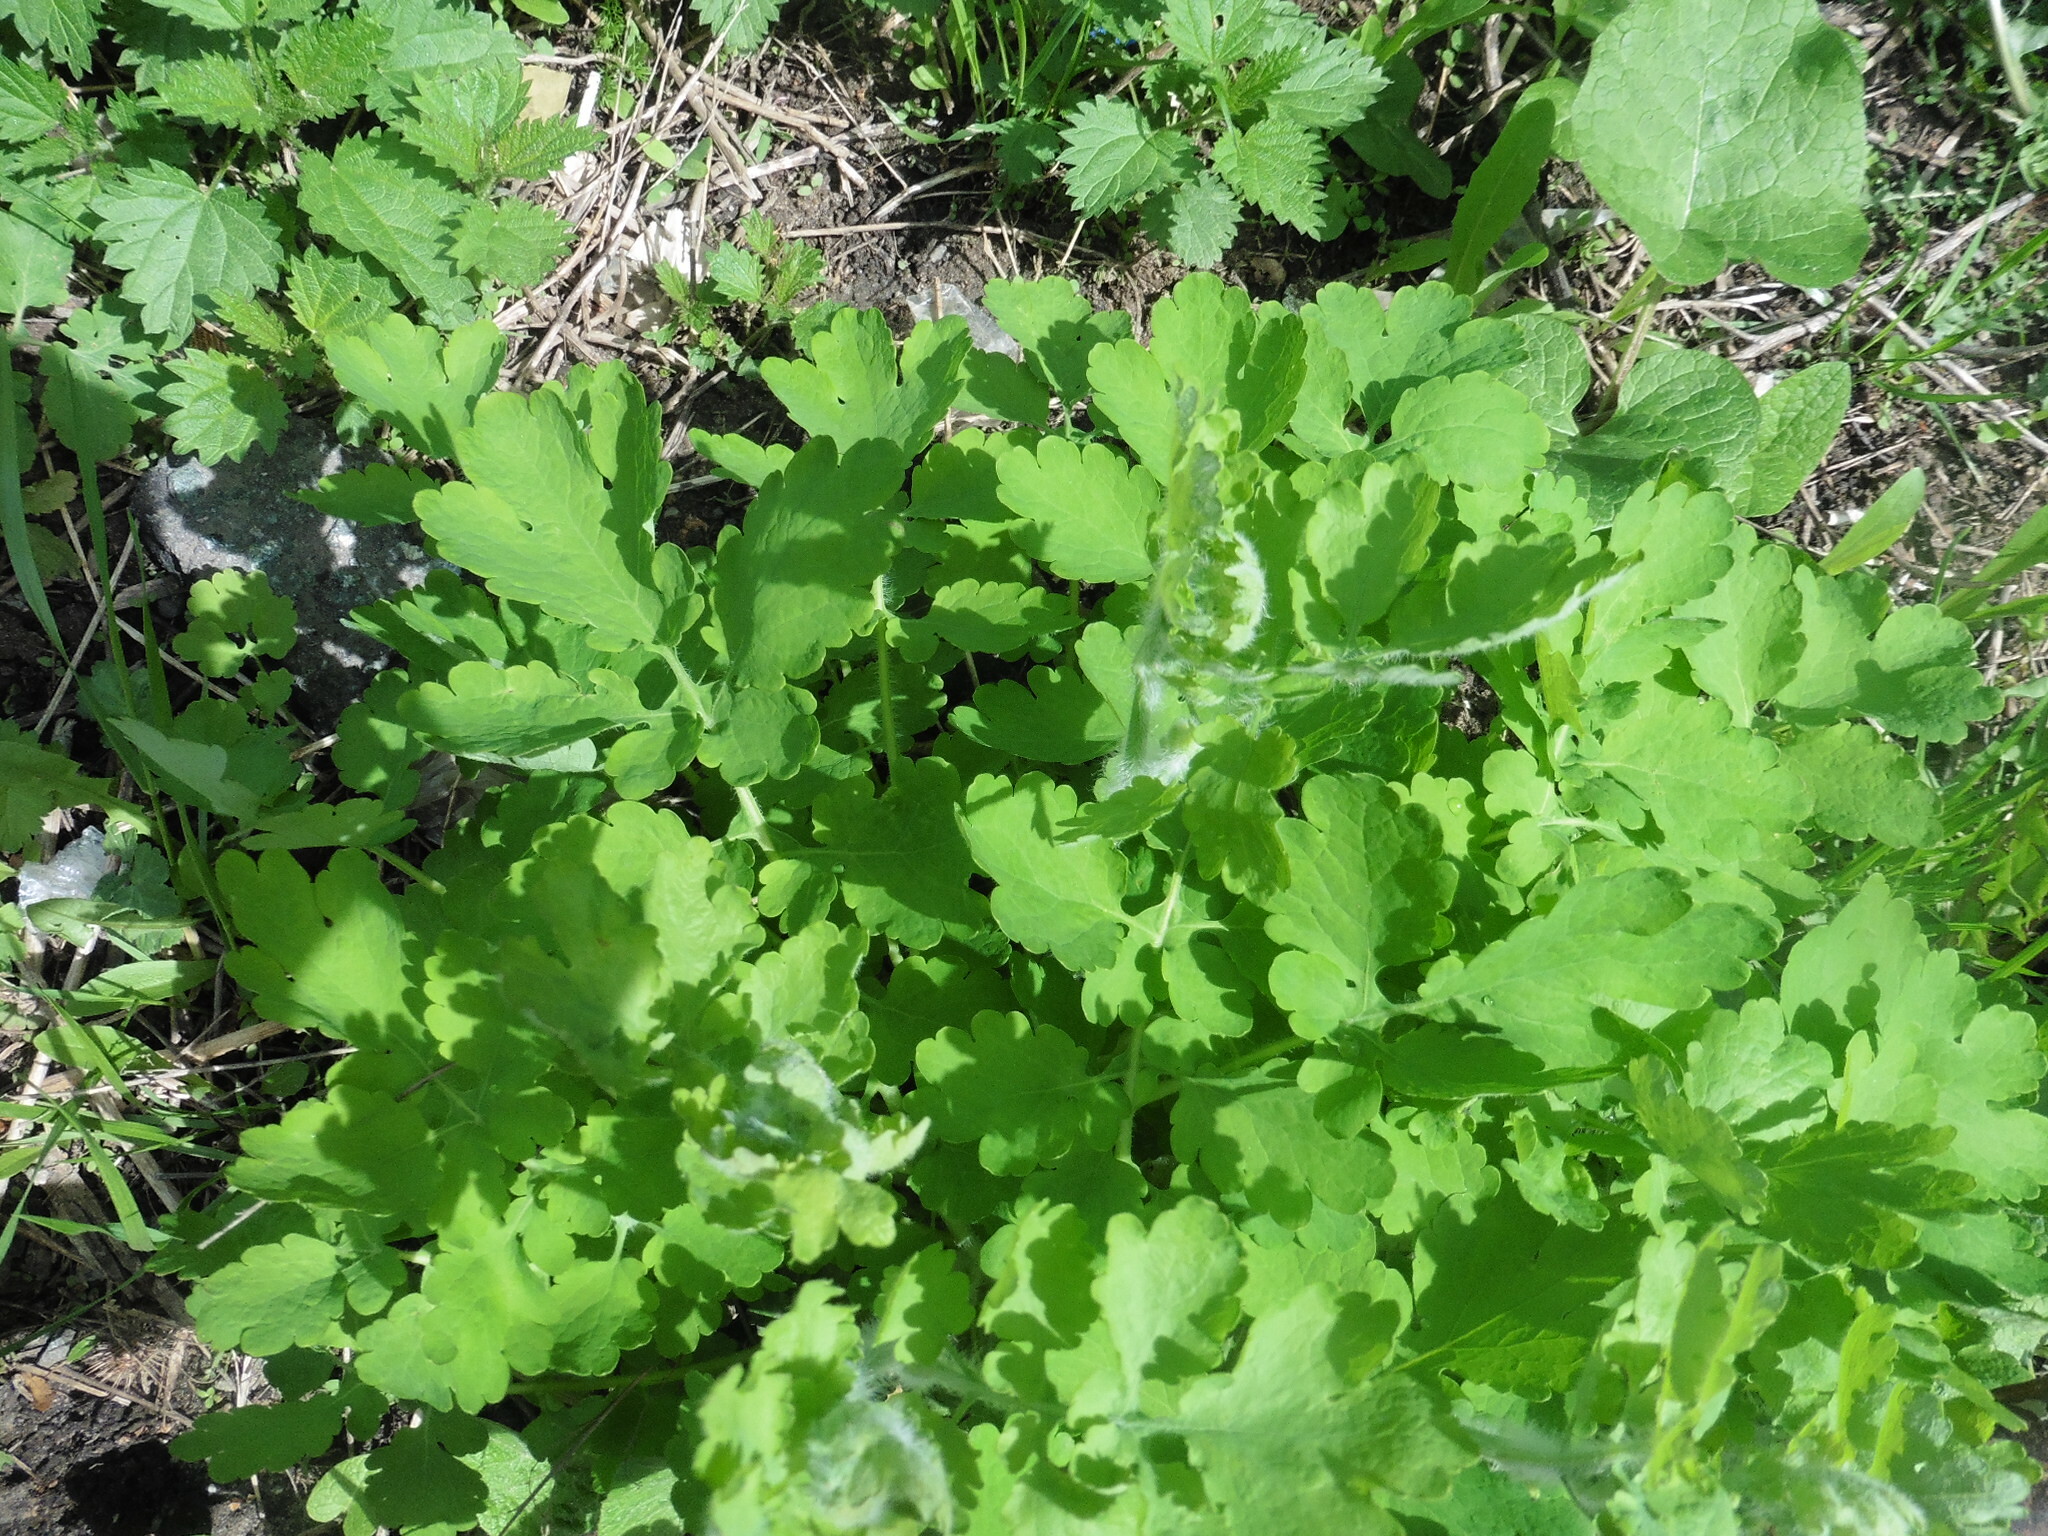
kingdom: Plantae
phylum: Tracheophyta
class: Magnoliopsida
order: Ranunculales
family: Papaveraceae
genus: Chelidonium
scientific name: Chelidonium majus
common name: Greater celandine
